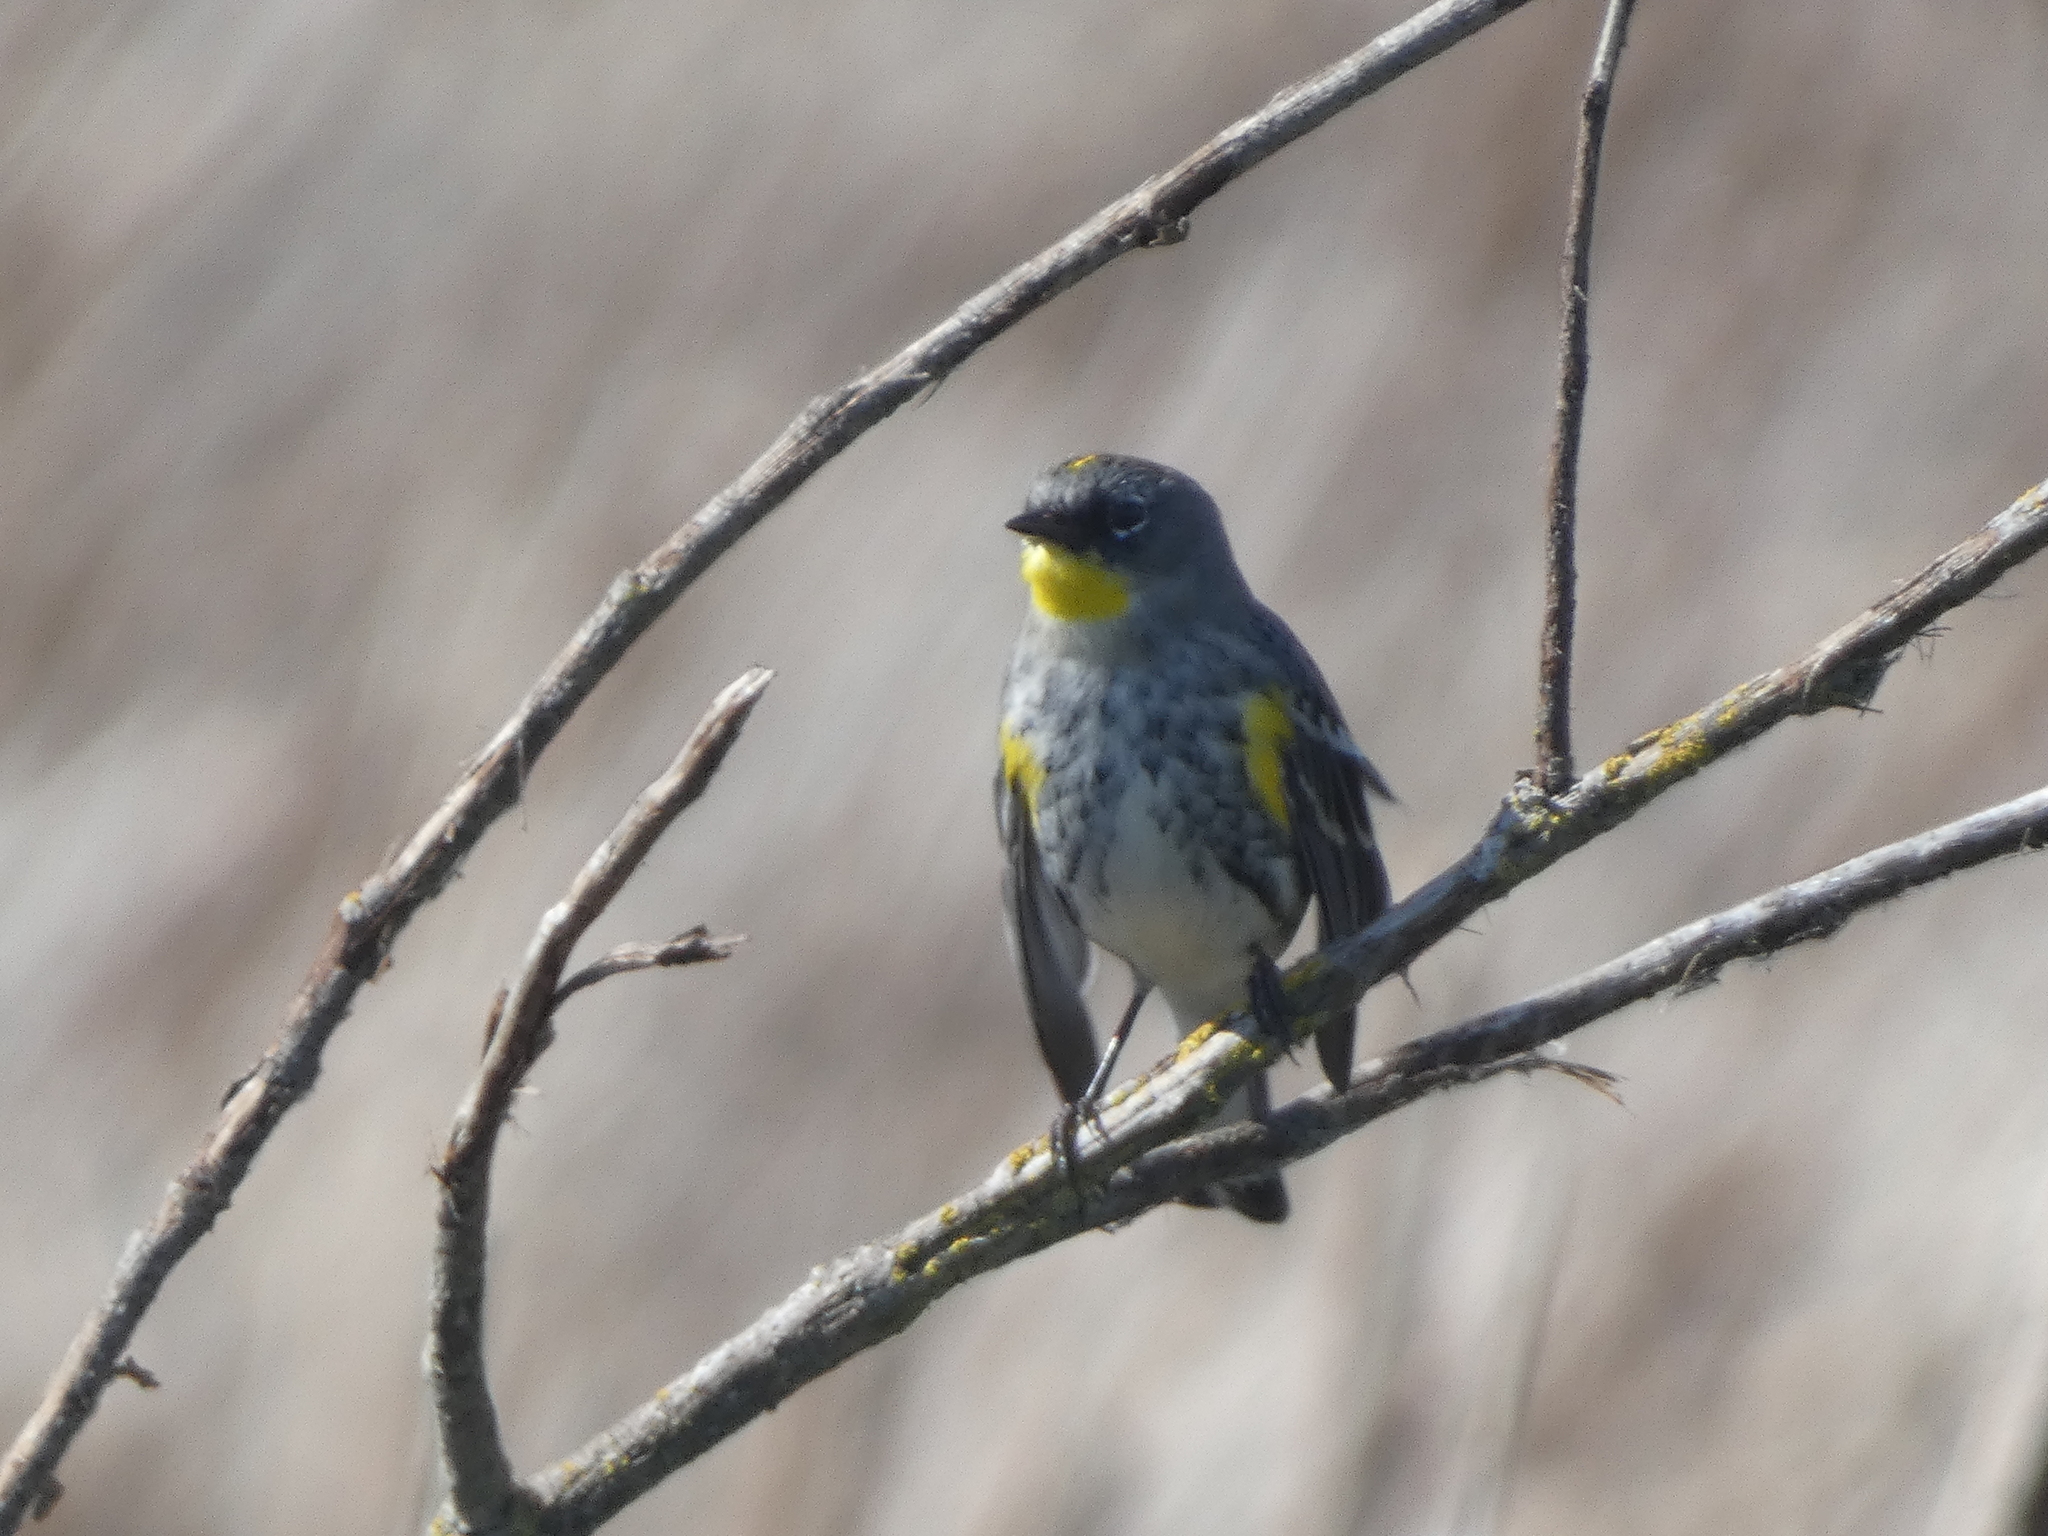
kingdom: Animalia
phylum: Chordata
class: Aves
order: Passeriformes
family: Parulidae
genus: Setophaga
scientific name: Setophaga auduboni
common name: Audubon's warbler
